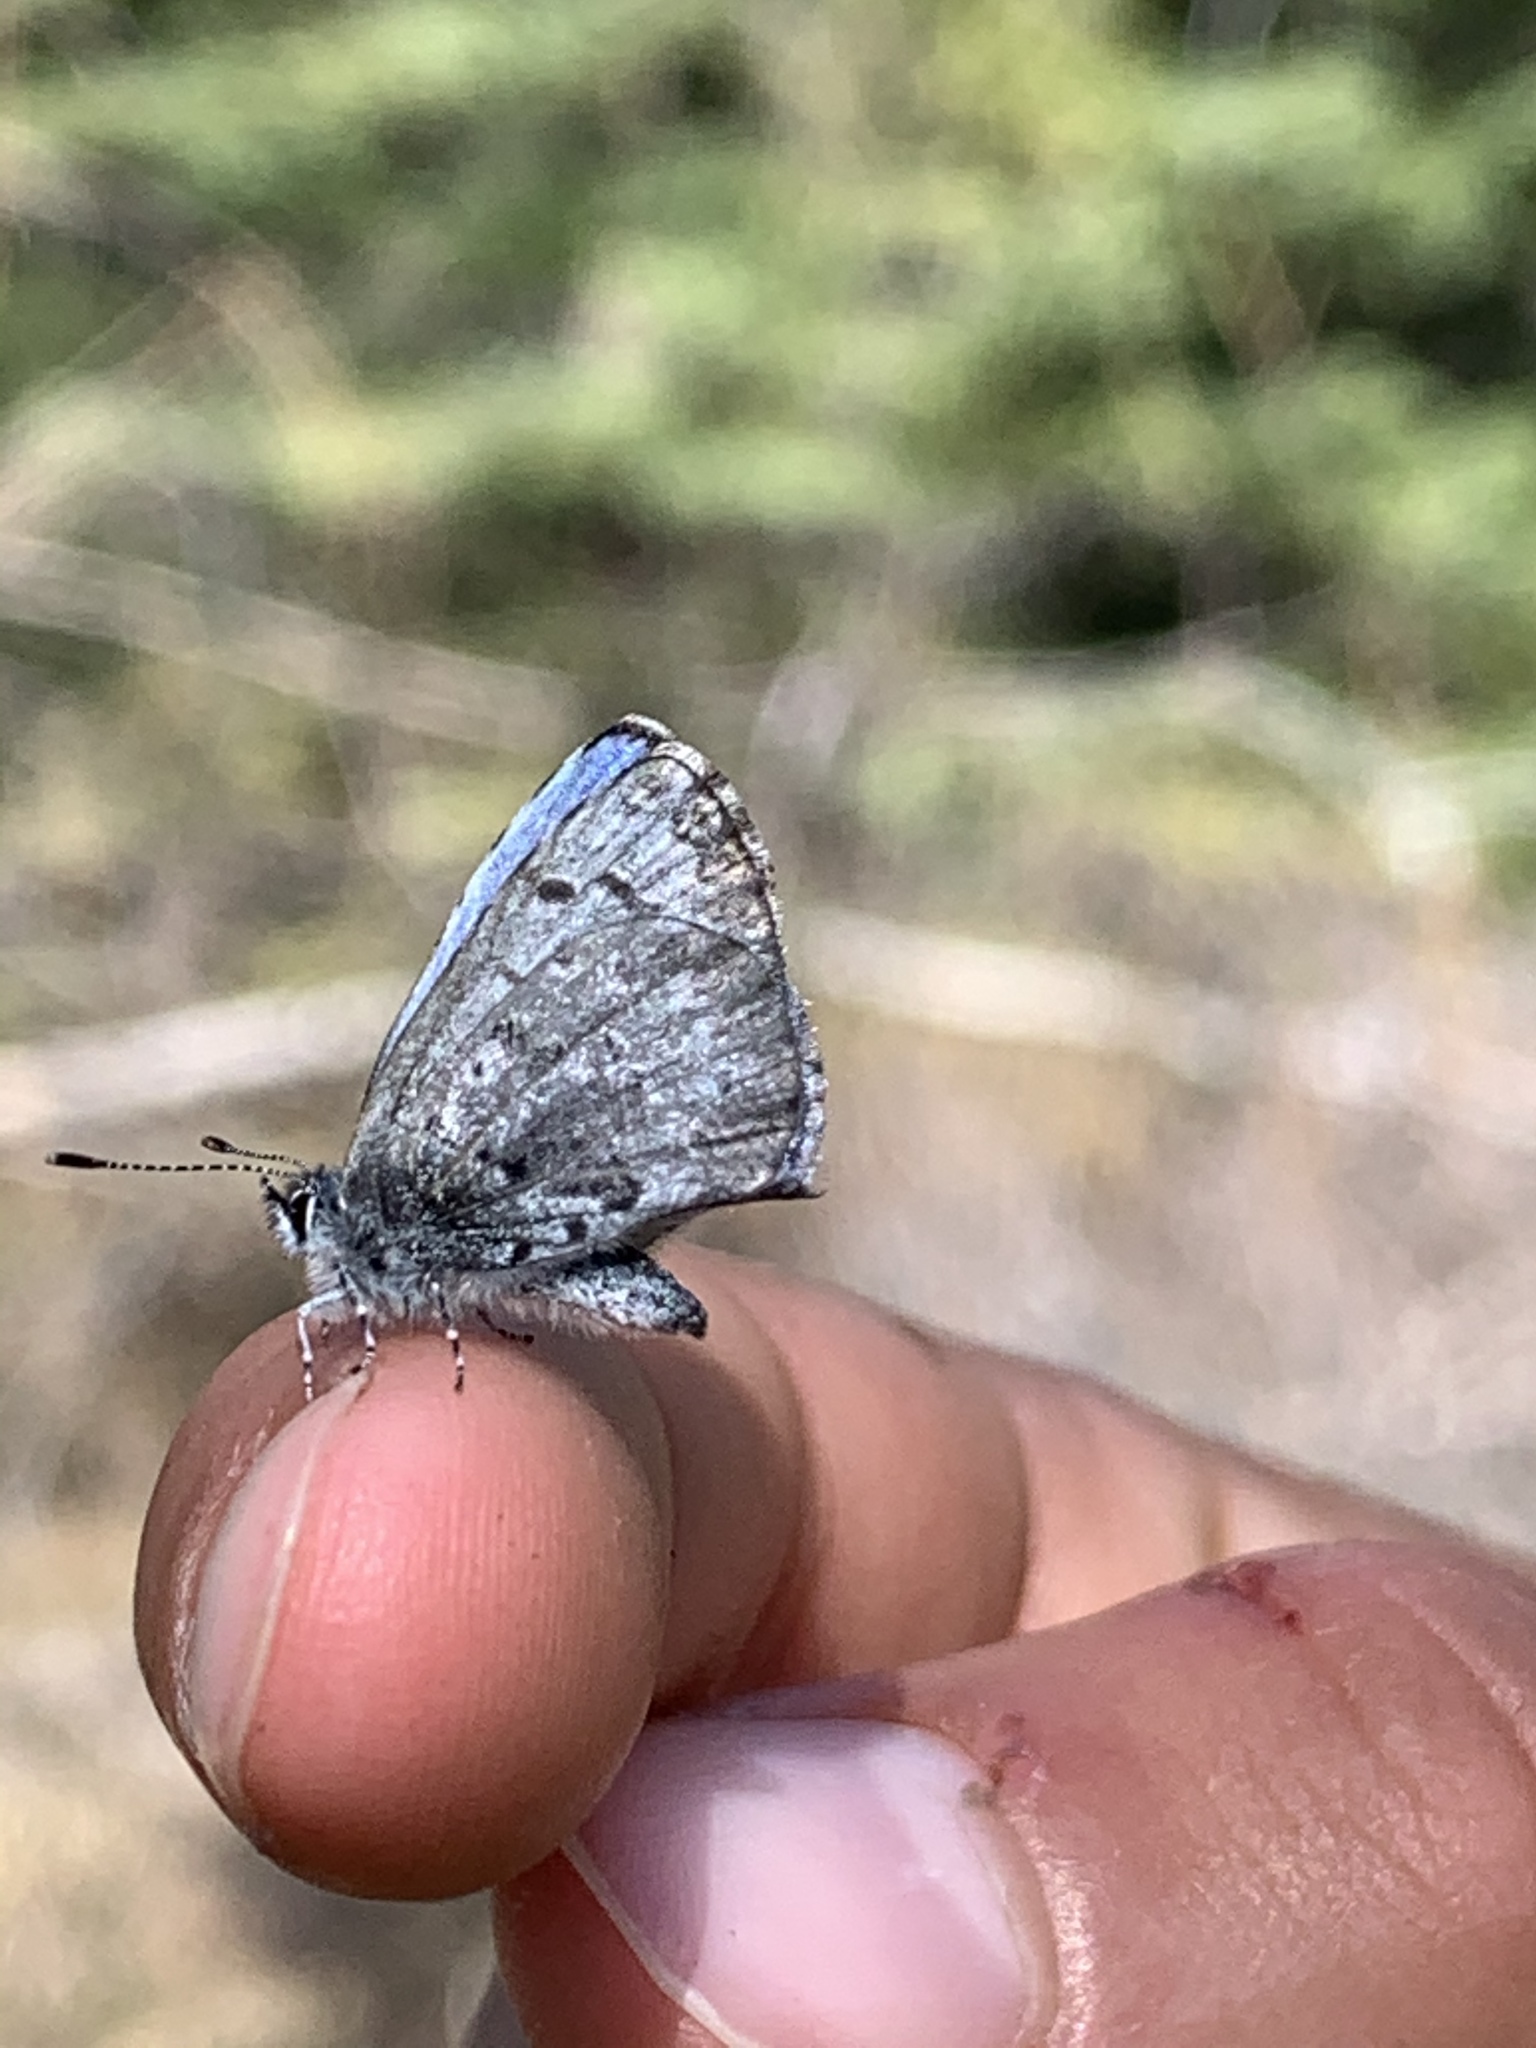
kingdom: Animalia
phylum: Arthropoda
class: Insecta
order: Lepidoptera
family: Lycaenidae
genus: Celastrina
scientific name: Celastrina lucia
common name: Lucia azure
